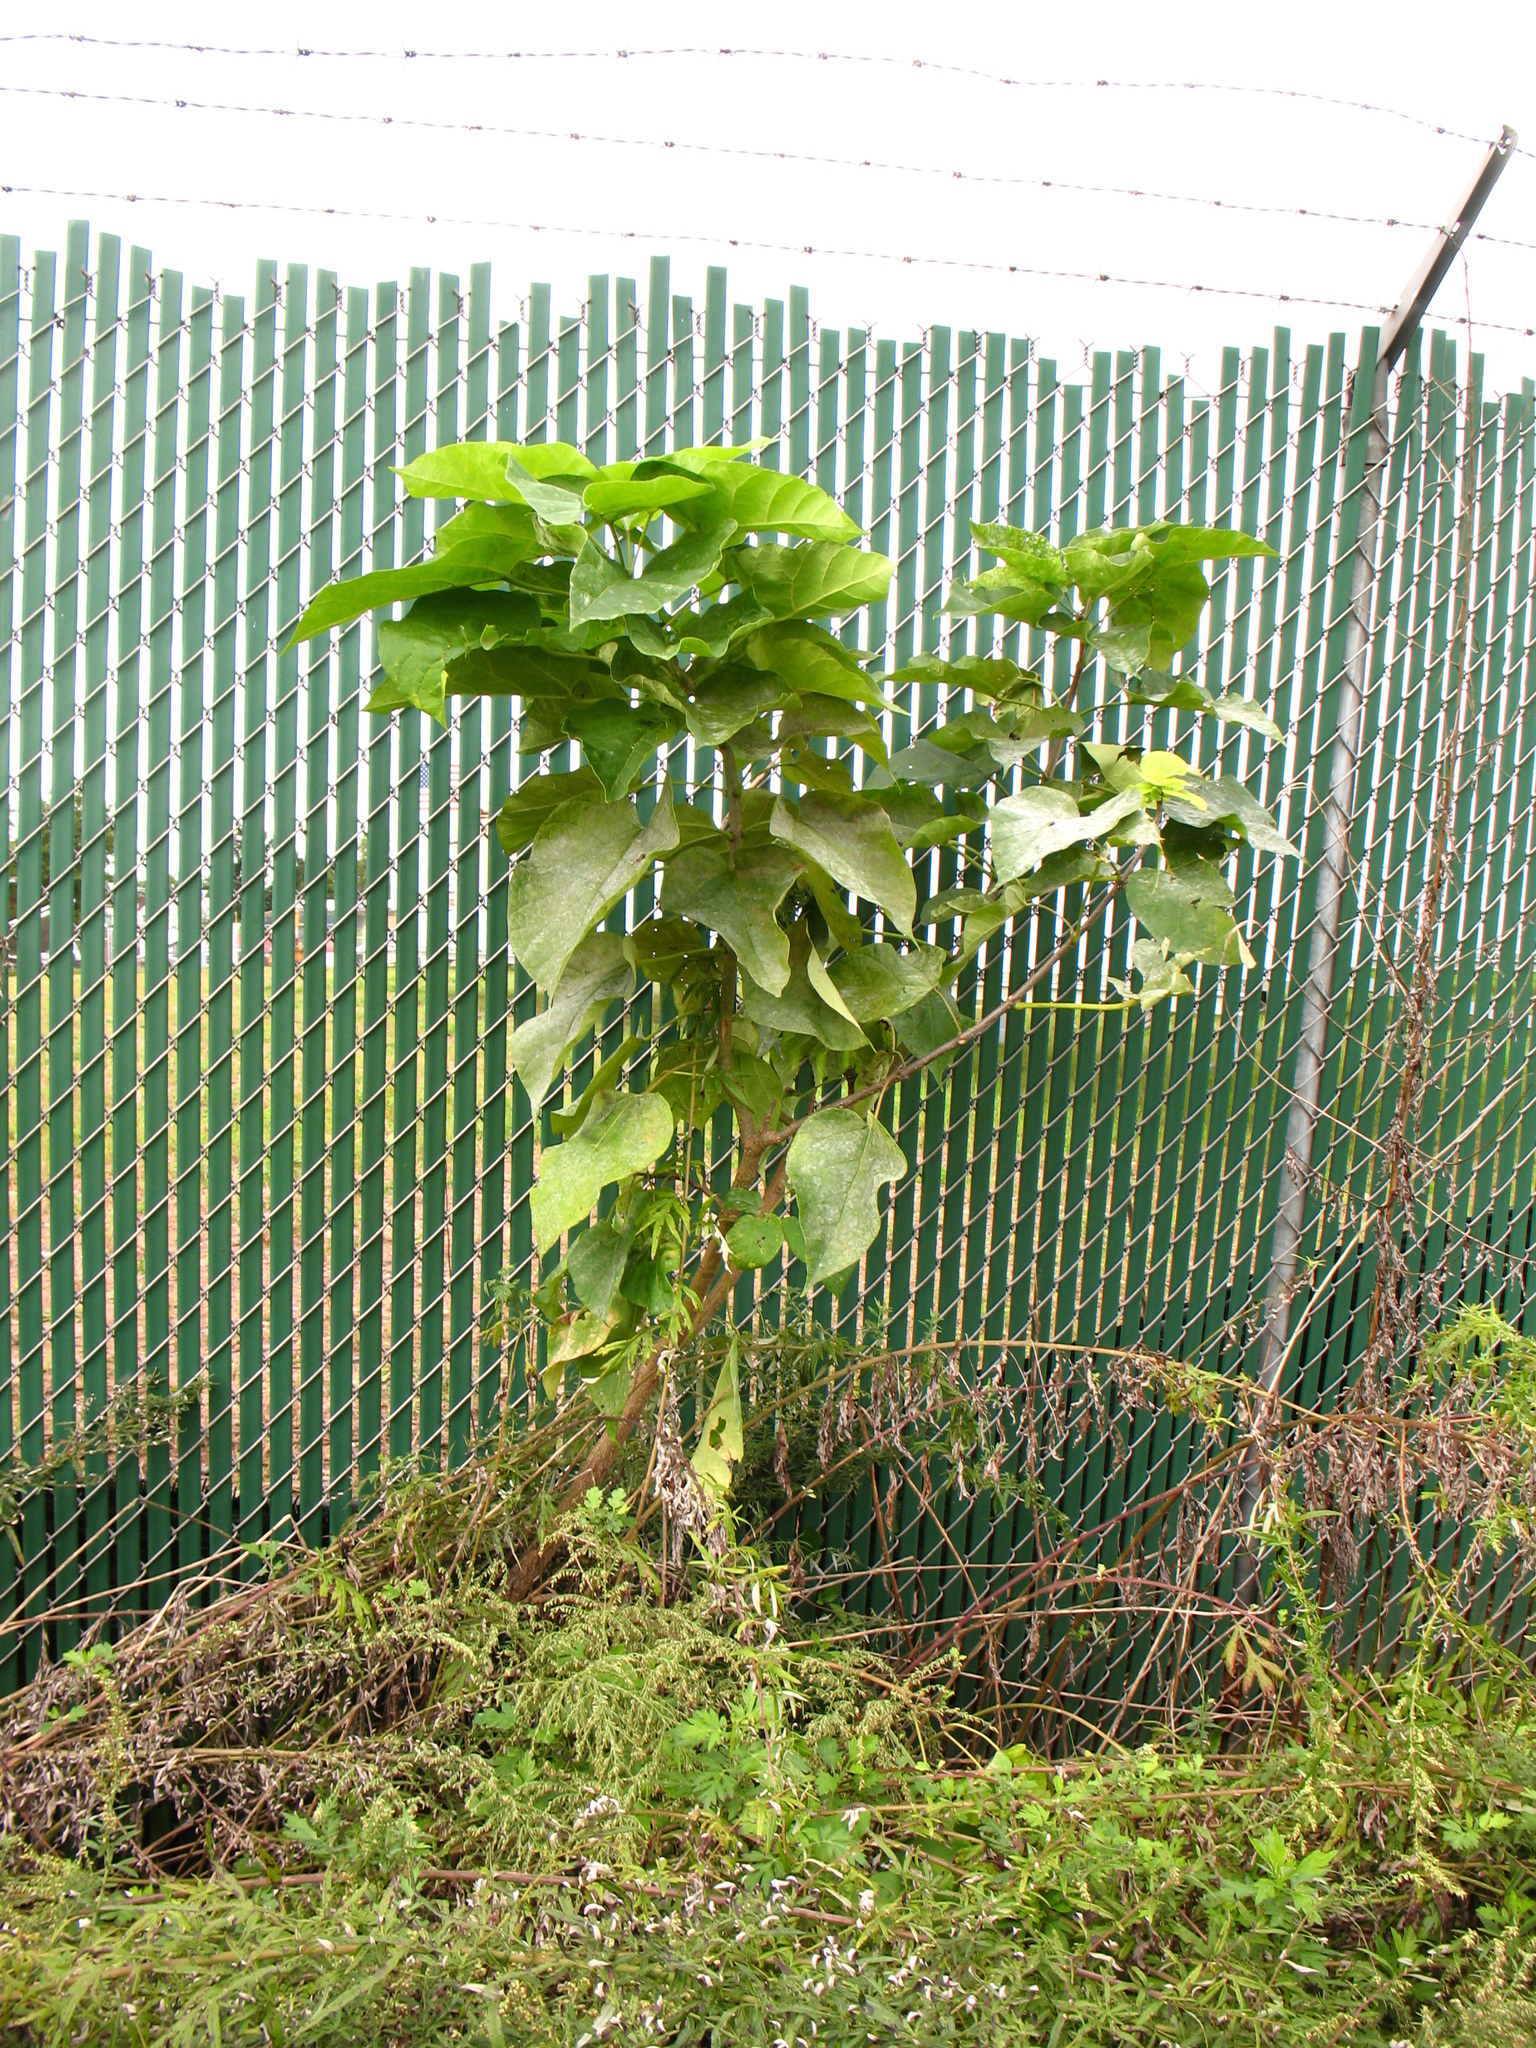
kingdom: Plantae
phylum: Tracheophyta
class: Magnoliopsida
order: Lamiales
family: Bignoniaceae
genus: Catalpa
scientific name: Catalpa speciosa
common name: Northern catalpa
